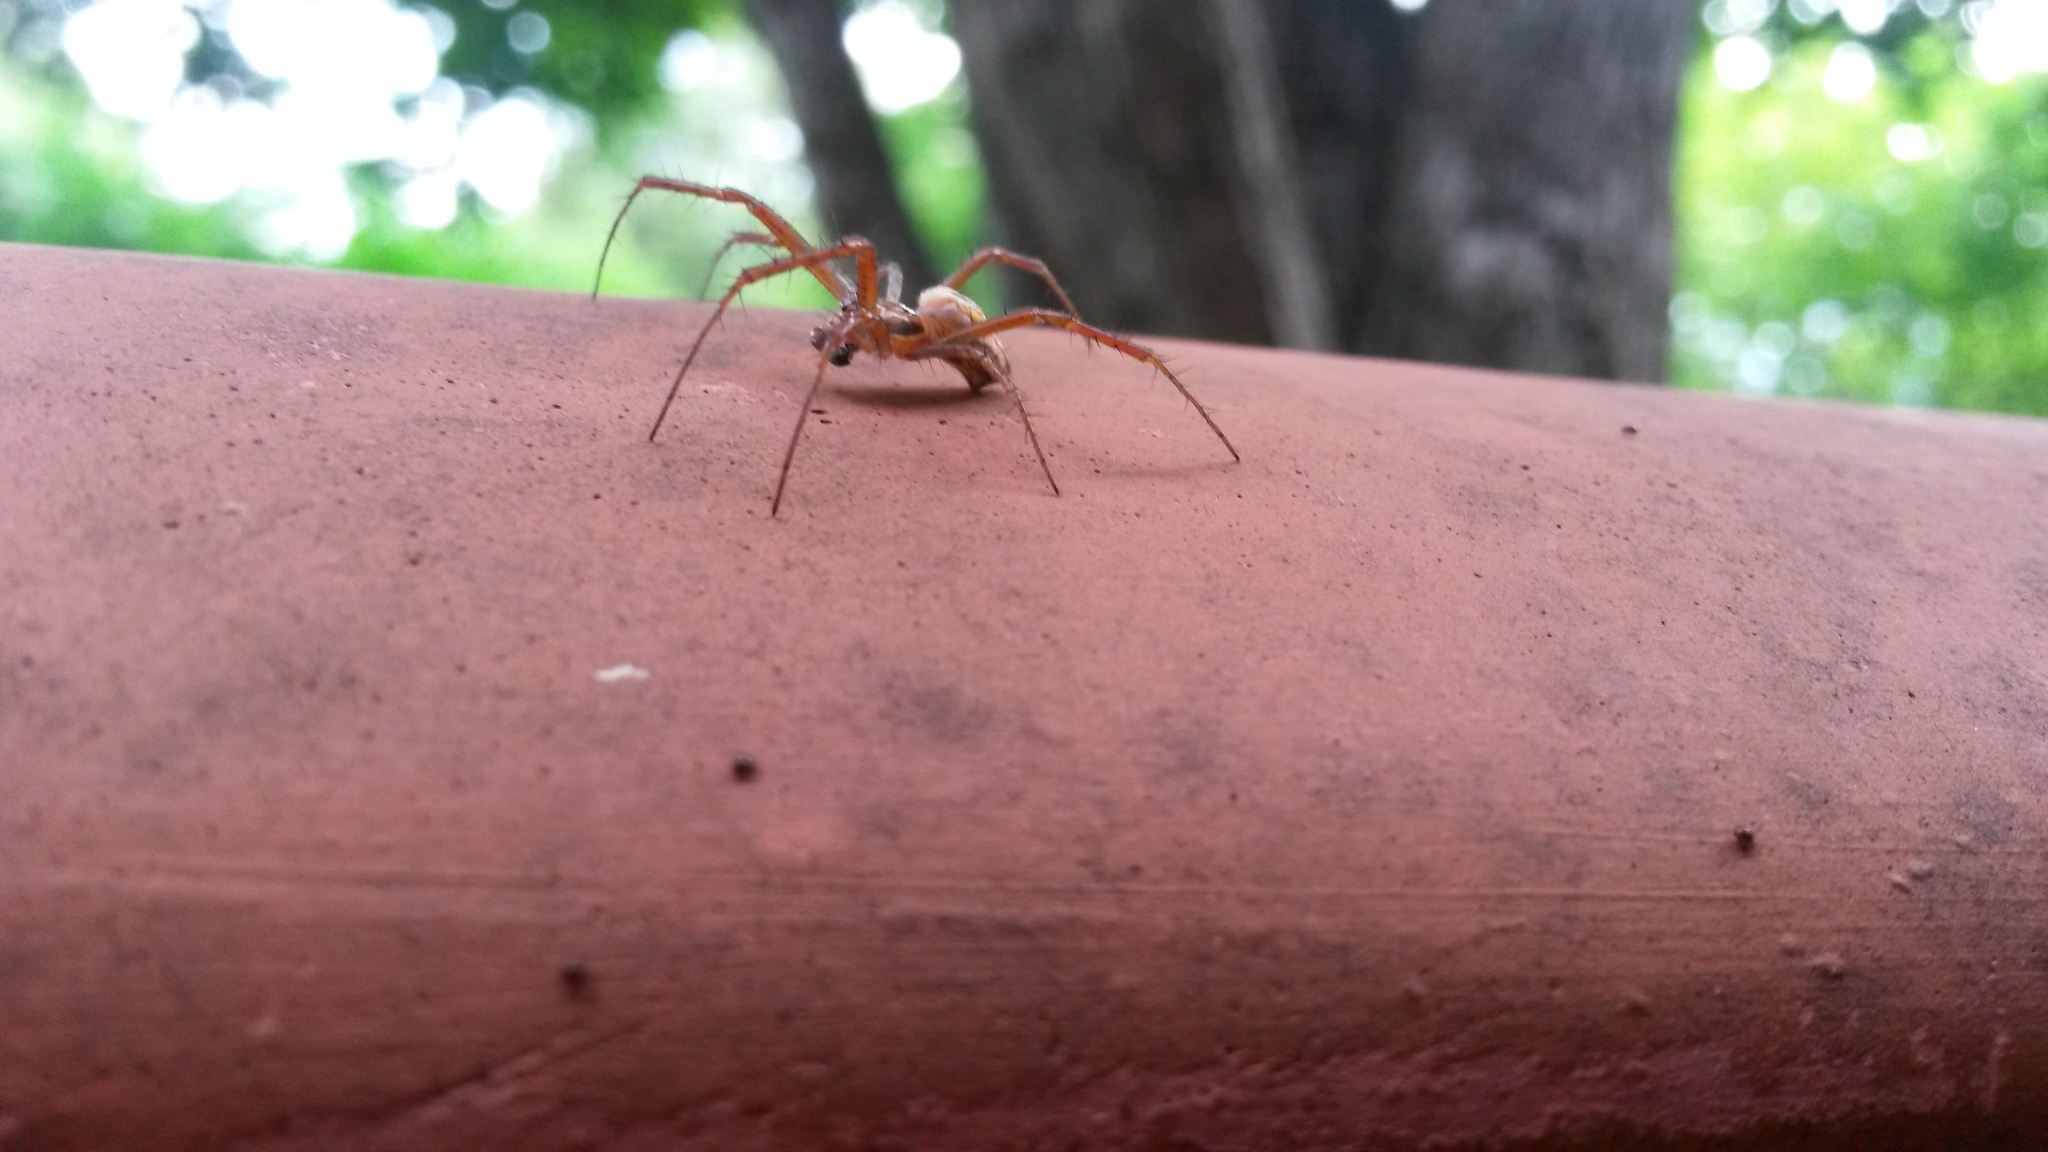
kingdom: Animalia
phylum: Arthropoda
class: Arachnida
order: Araneae
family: Araneidae
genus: Mecynogea
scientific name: Mecynogea lemniscata
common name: Orb weavers
